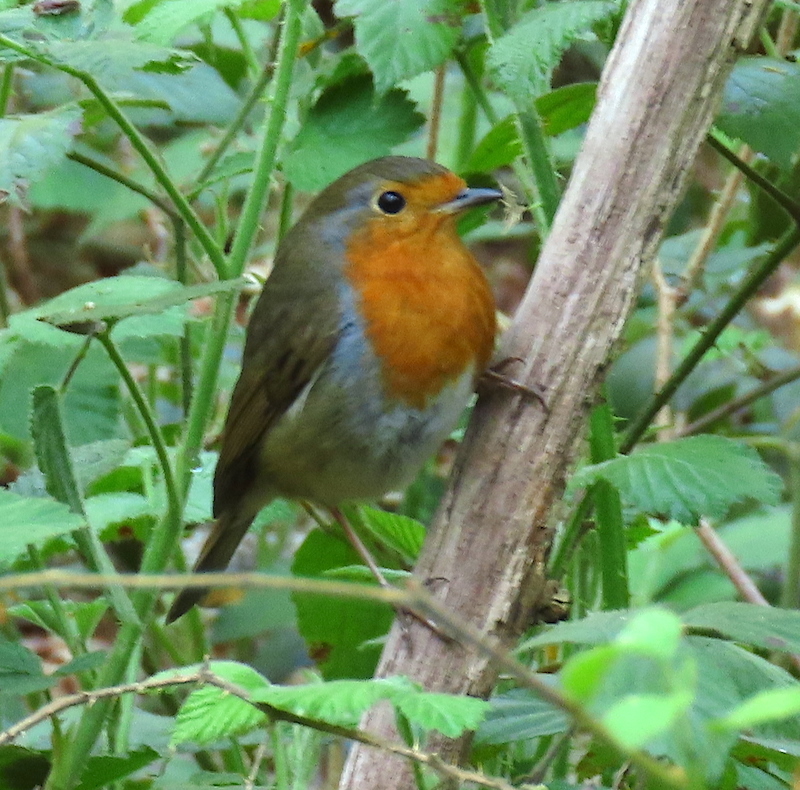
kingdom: Animalia
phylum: Chordata
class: Aves
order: Passeriformes
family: Muscicapidae
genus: Erithacus
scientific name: Erithacus rubecula
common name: European robin
